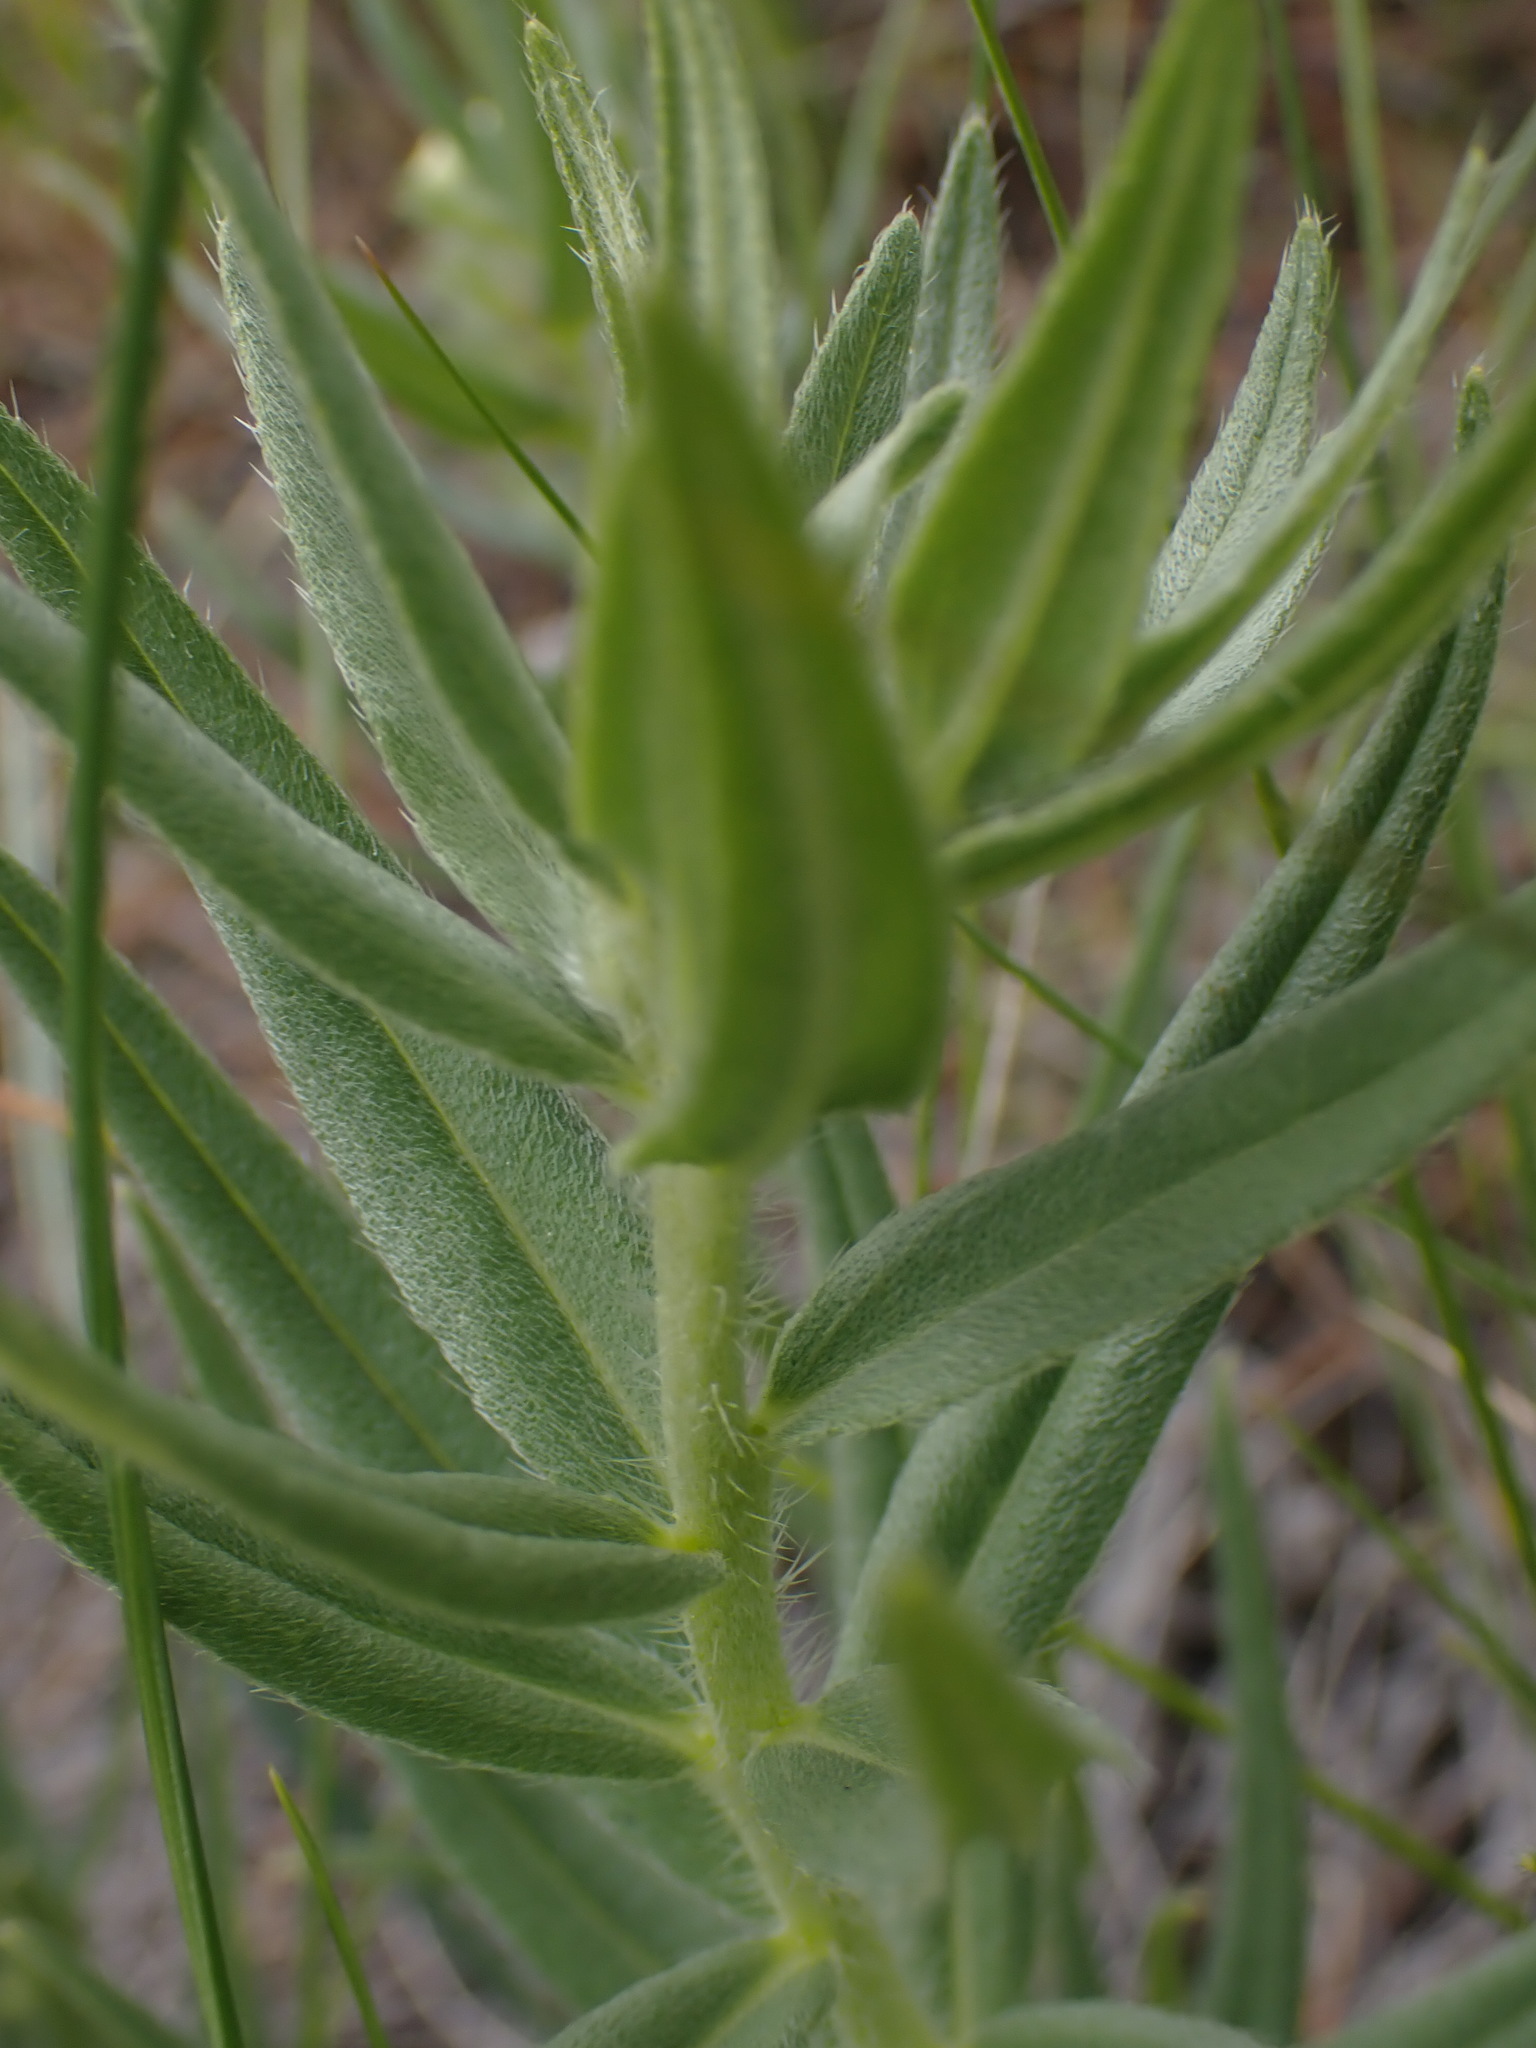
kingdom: Plantae
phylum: Tracheophyta
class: Magnoliopsida
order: Boraginales
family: Boraginaceae
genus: Lithospermum
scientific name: Lithospermum ruderale
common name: Western gromwell
